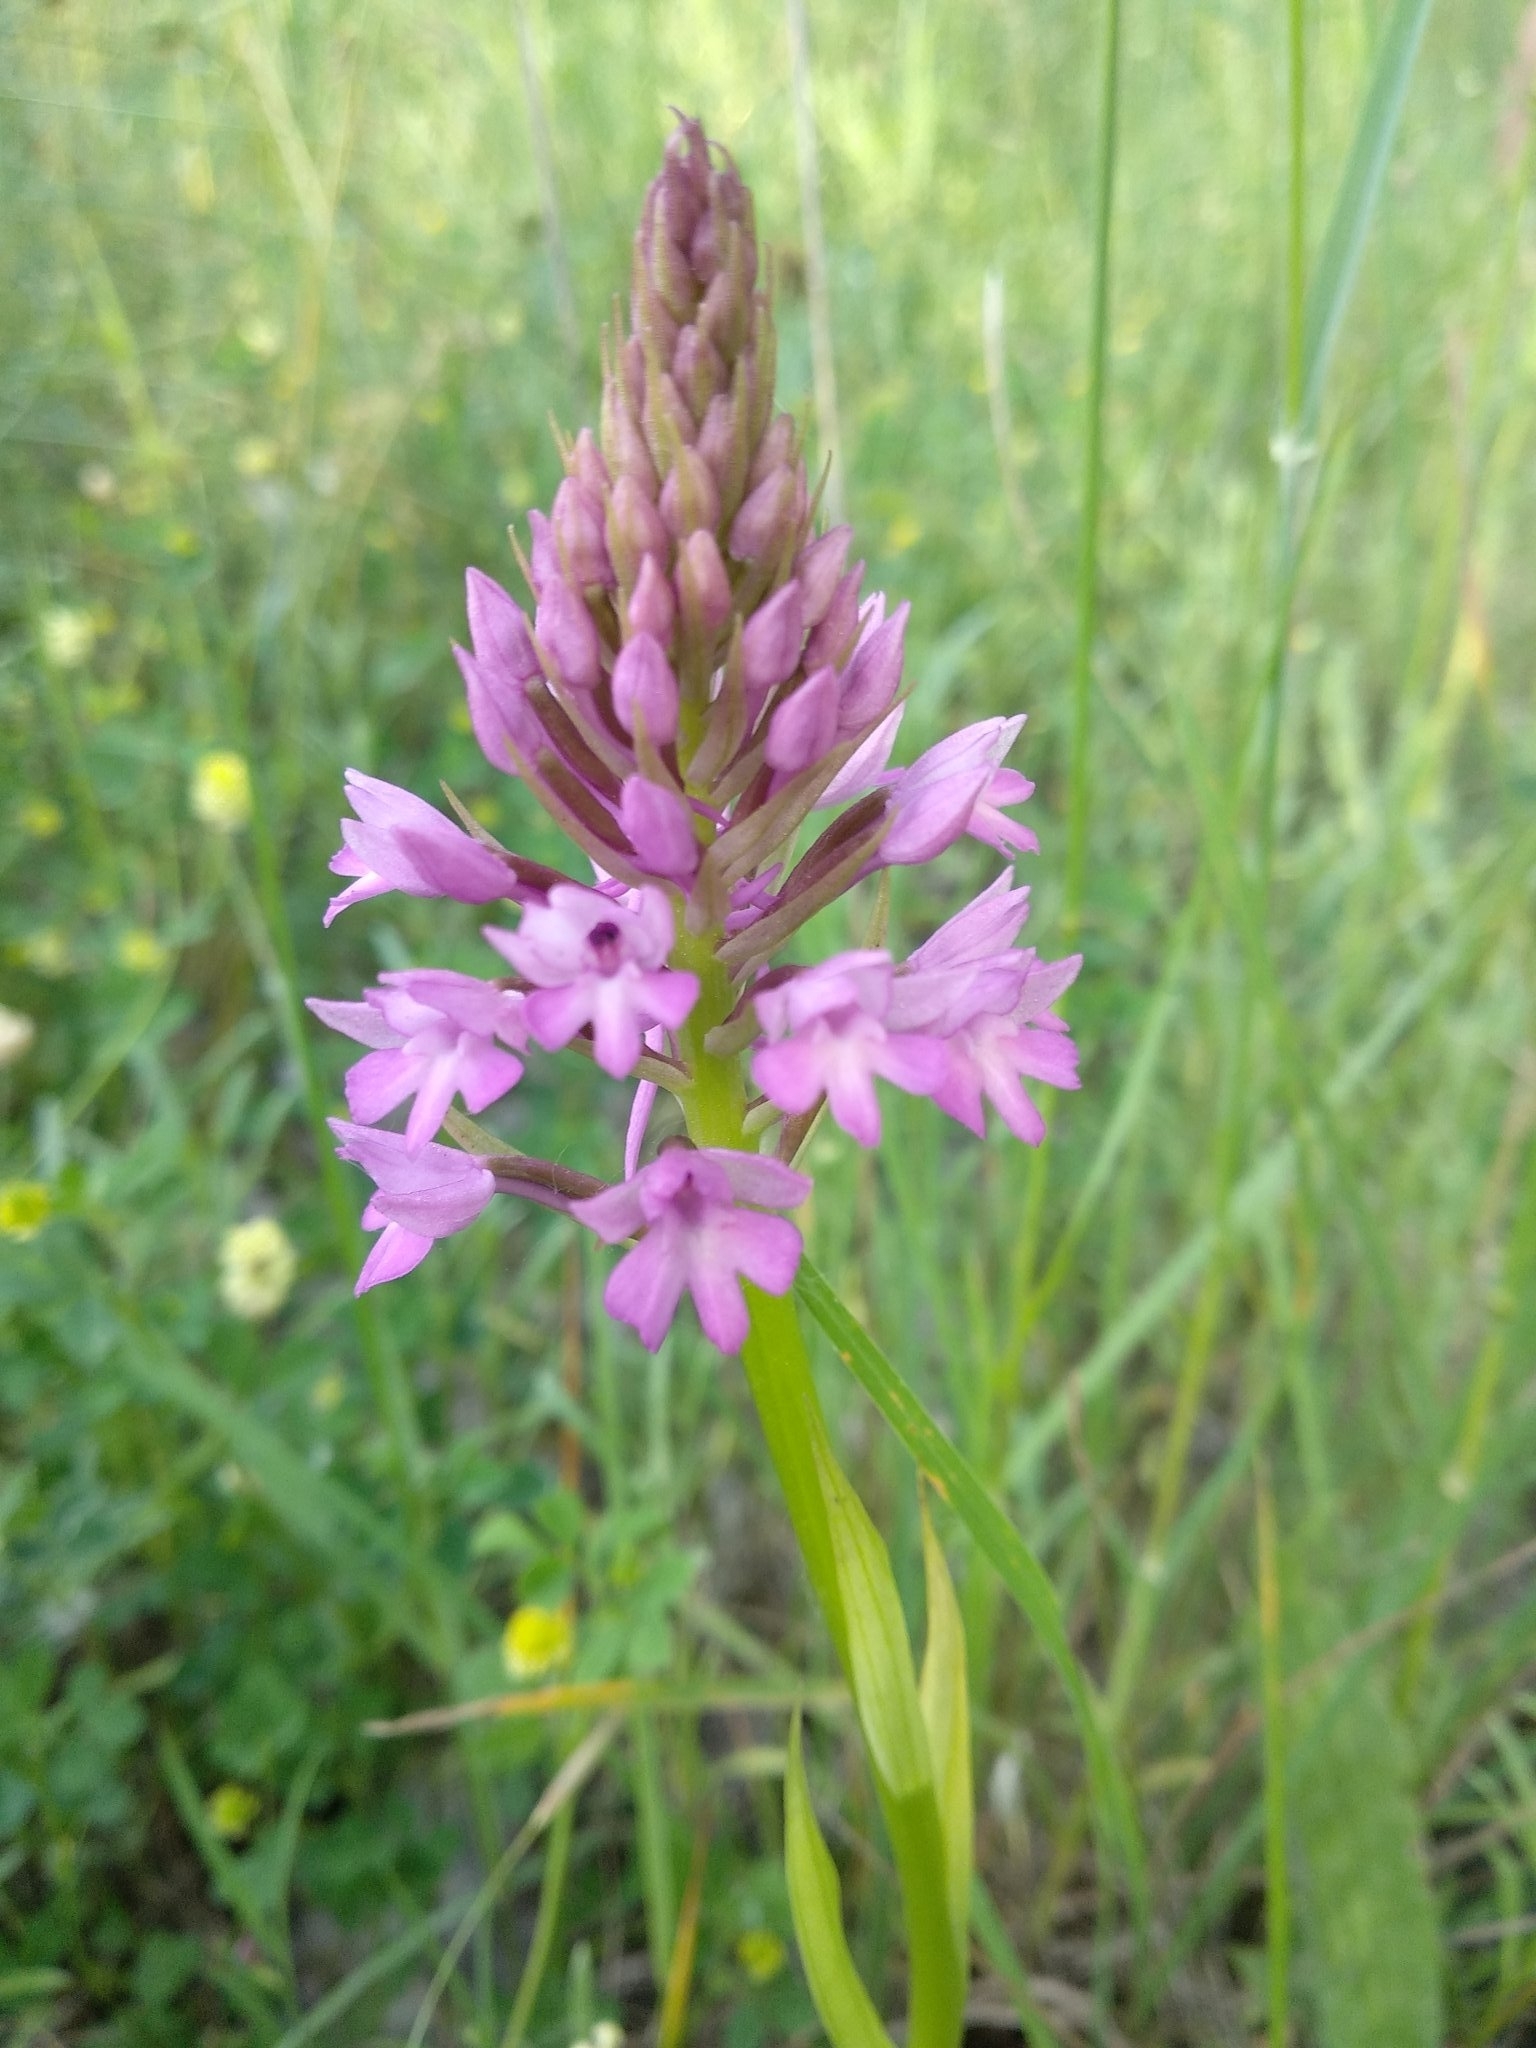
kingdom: Plantae
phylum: Tracheophyta
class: Liliopsida
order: Asparagales
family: Orchidaceae
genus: Anacamptis
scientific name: Anacamptis pyramidalis
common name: Pyramidal orchid
